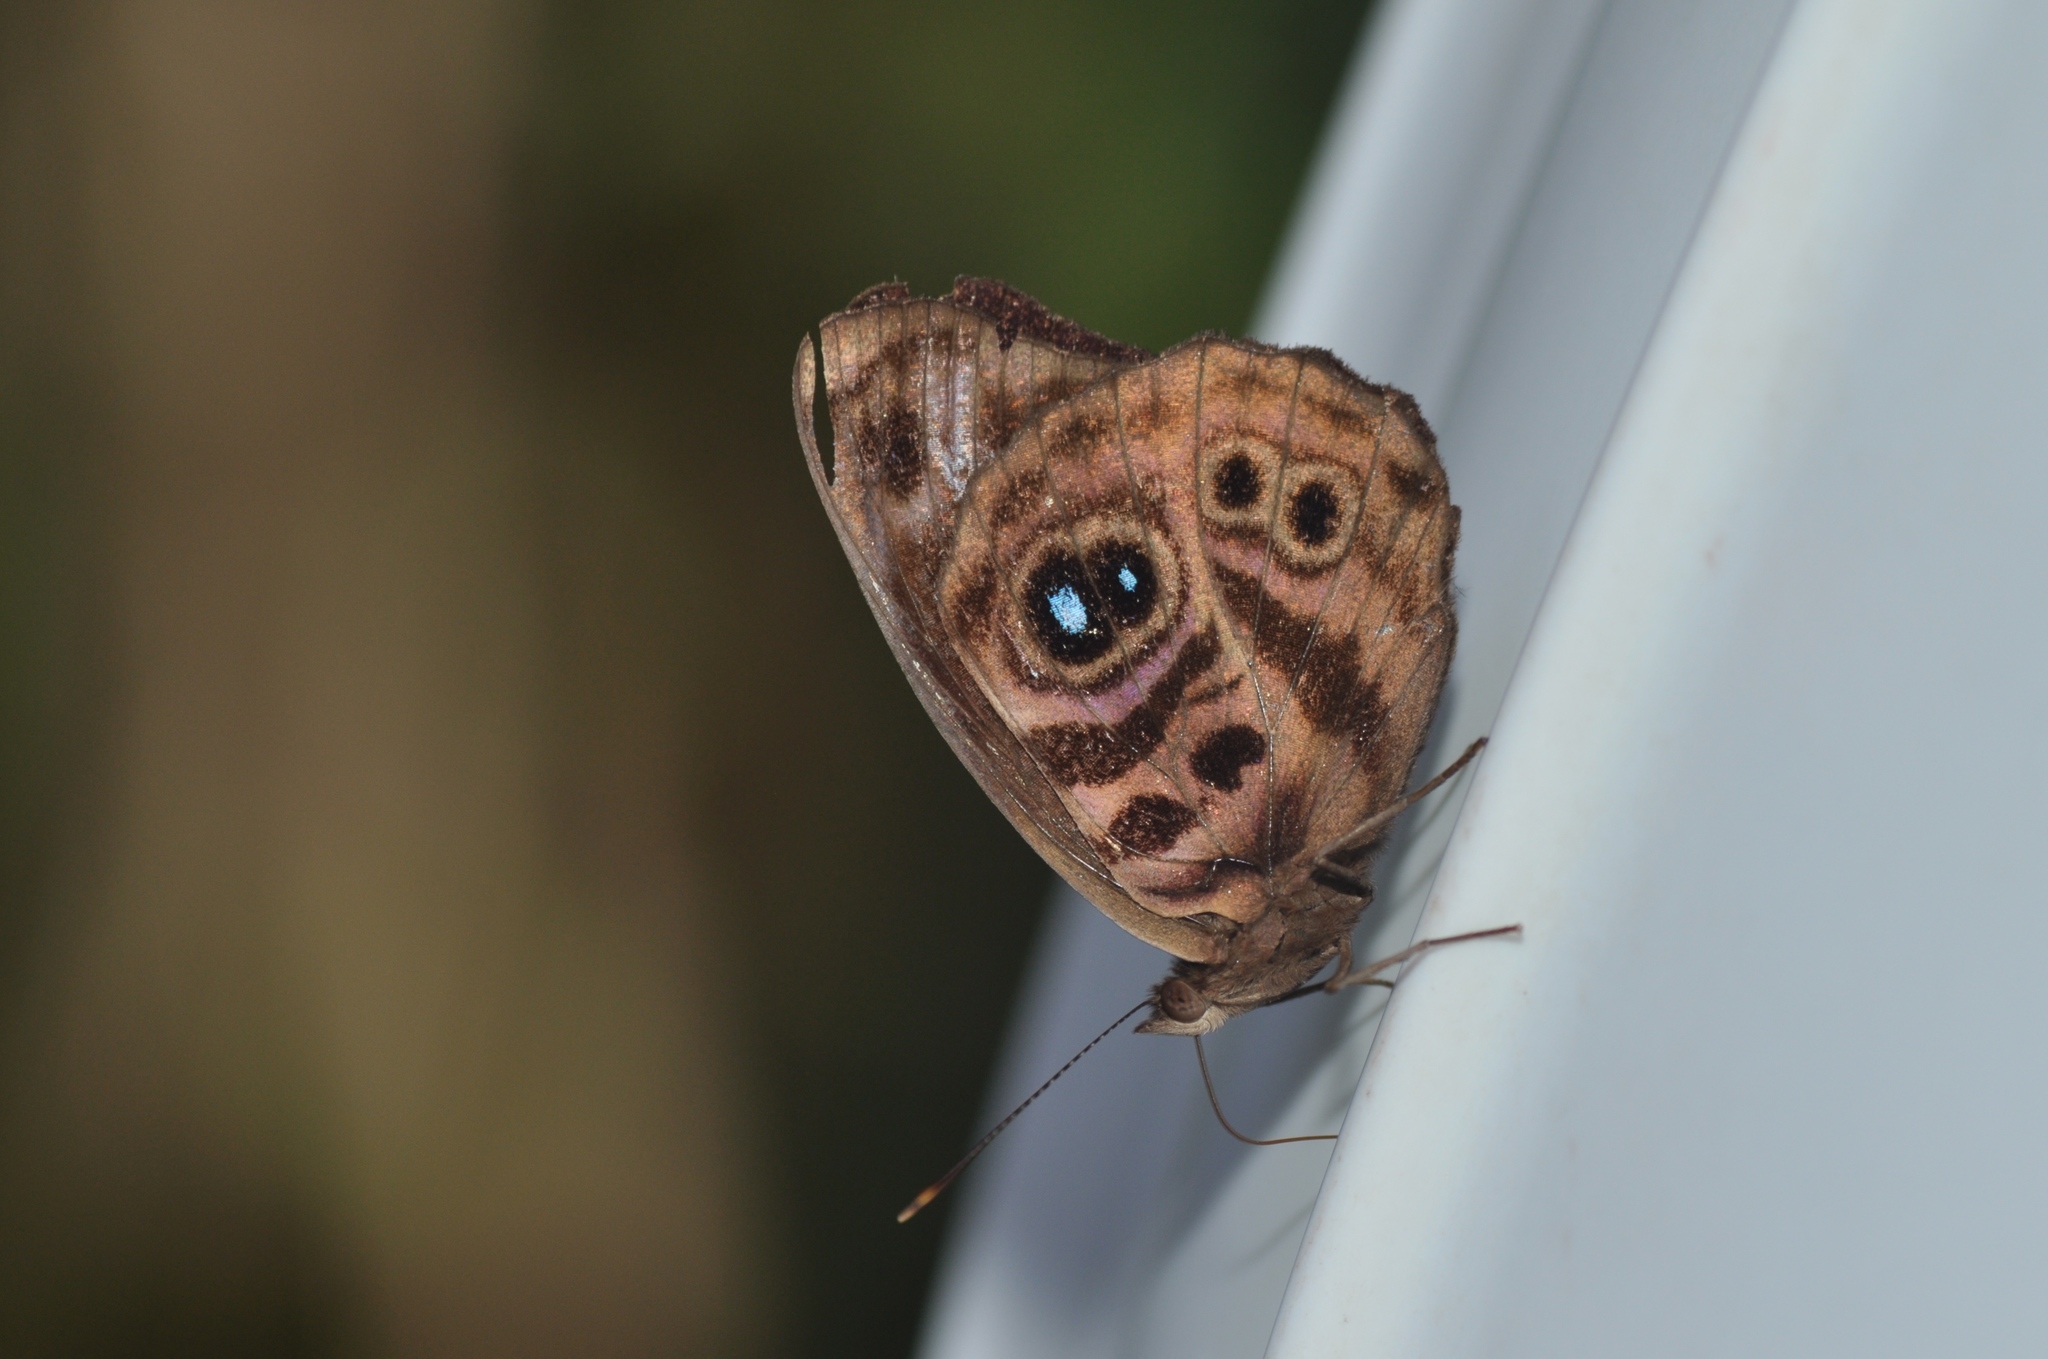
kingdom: Animalia
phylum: Arthropoda
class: Insecta
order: Lepidoptera
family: Nymphalidae
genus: Eunica
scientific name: Eunica norica
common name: Norica purplewing
